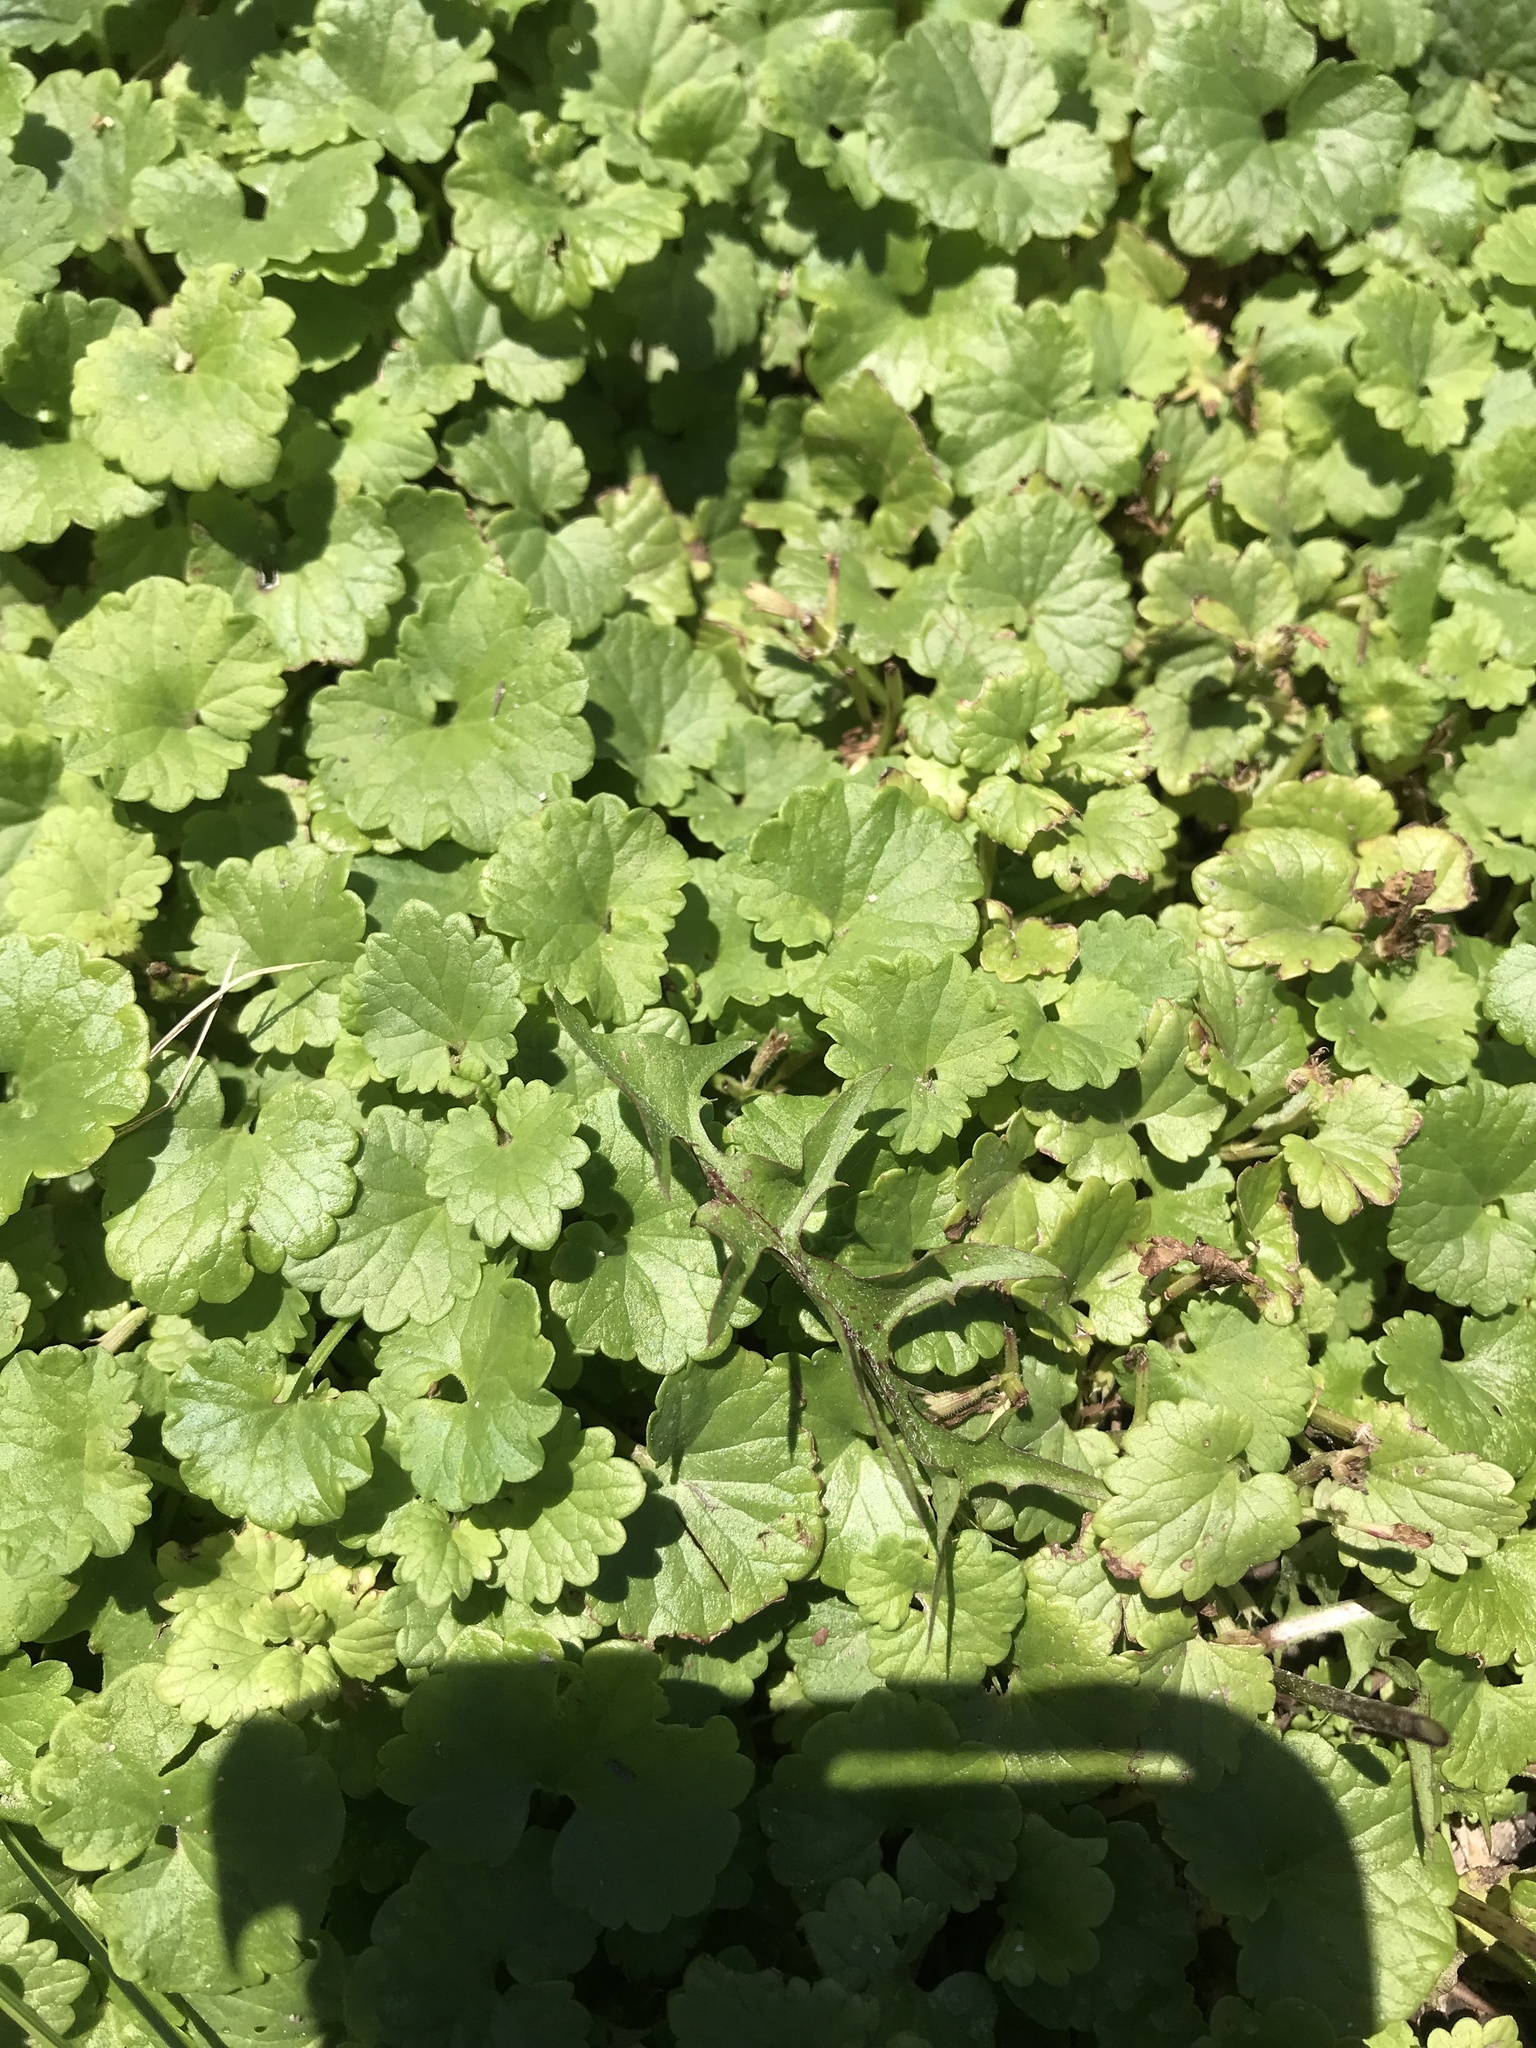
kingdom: Plantae
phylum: Tracheophyta
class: Magnoliopsida
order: Lamiales
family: Lamiaceae
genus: Glechoma
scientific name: Glechoma hederacea
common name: Ground ivy
